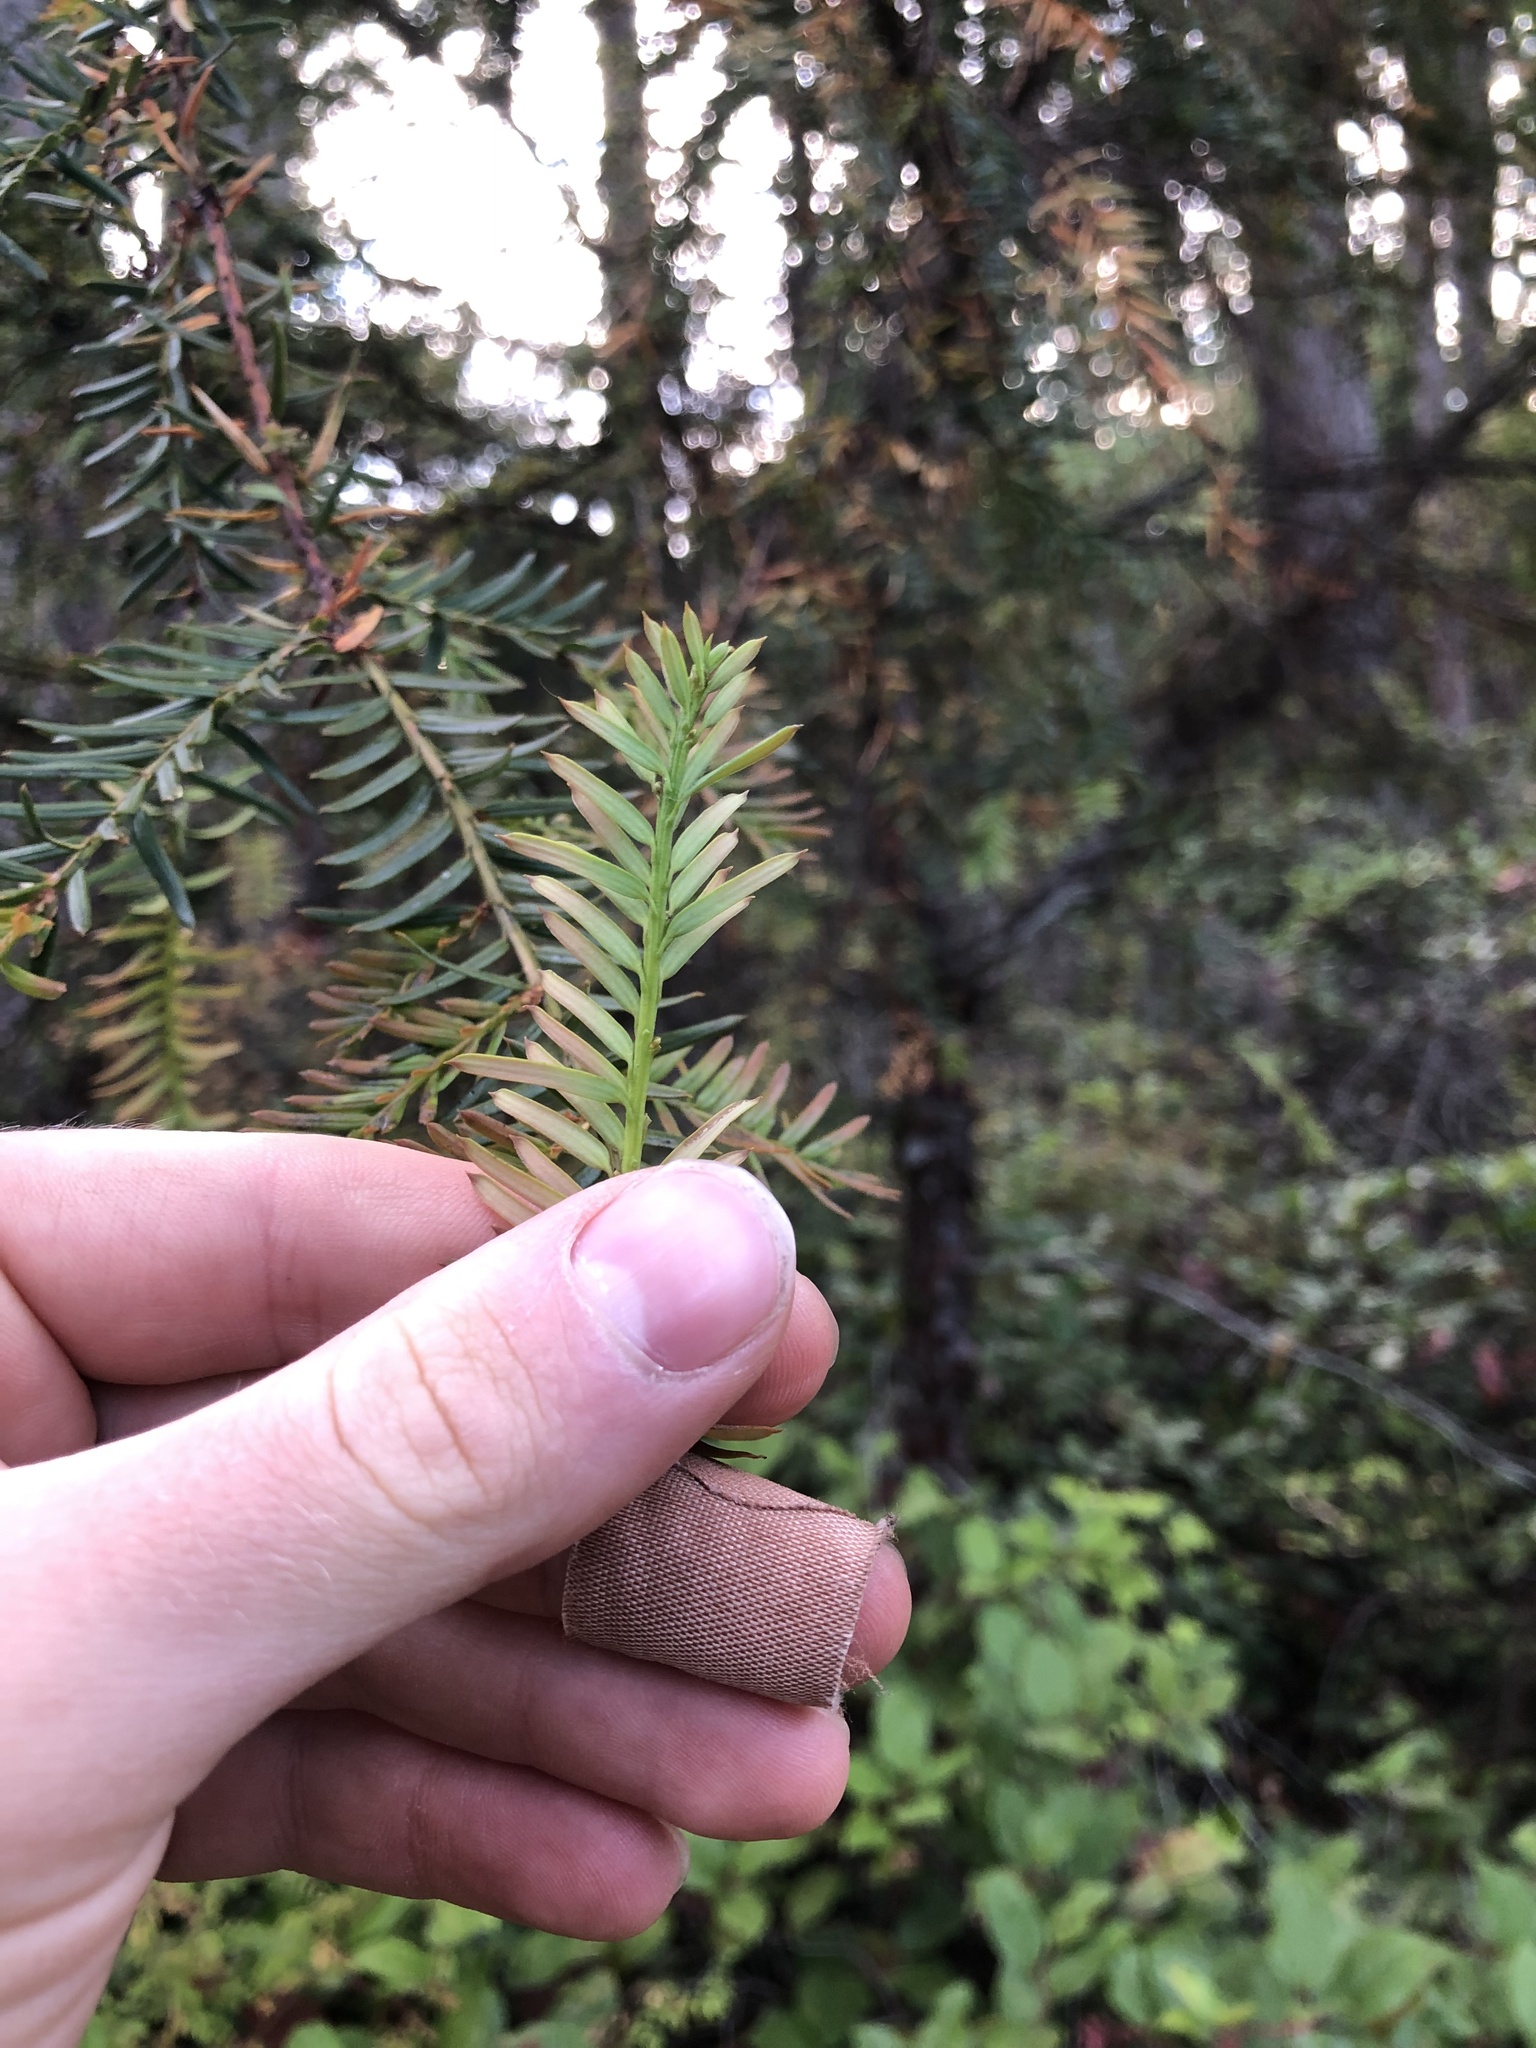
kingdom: Plantae
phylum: Tracheophyta
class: Pinopsida
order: Pinales
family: Taxaceae
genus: Taxus
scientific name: Taxus brevifolia
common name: Pacific yew
